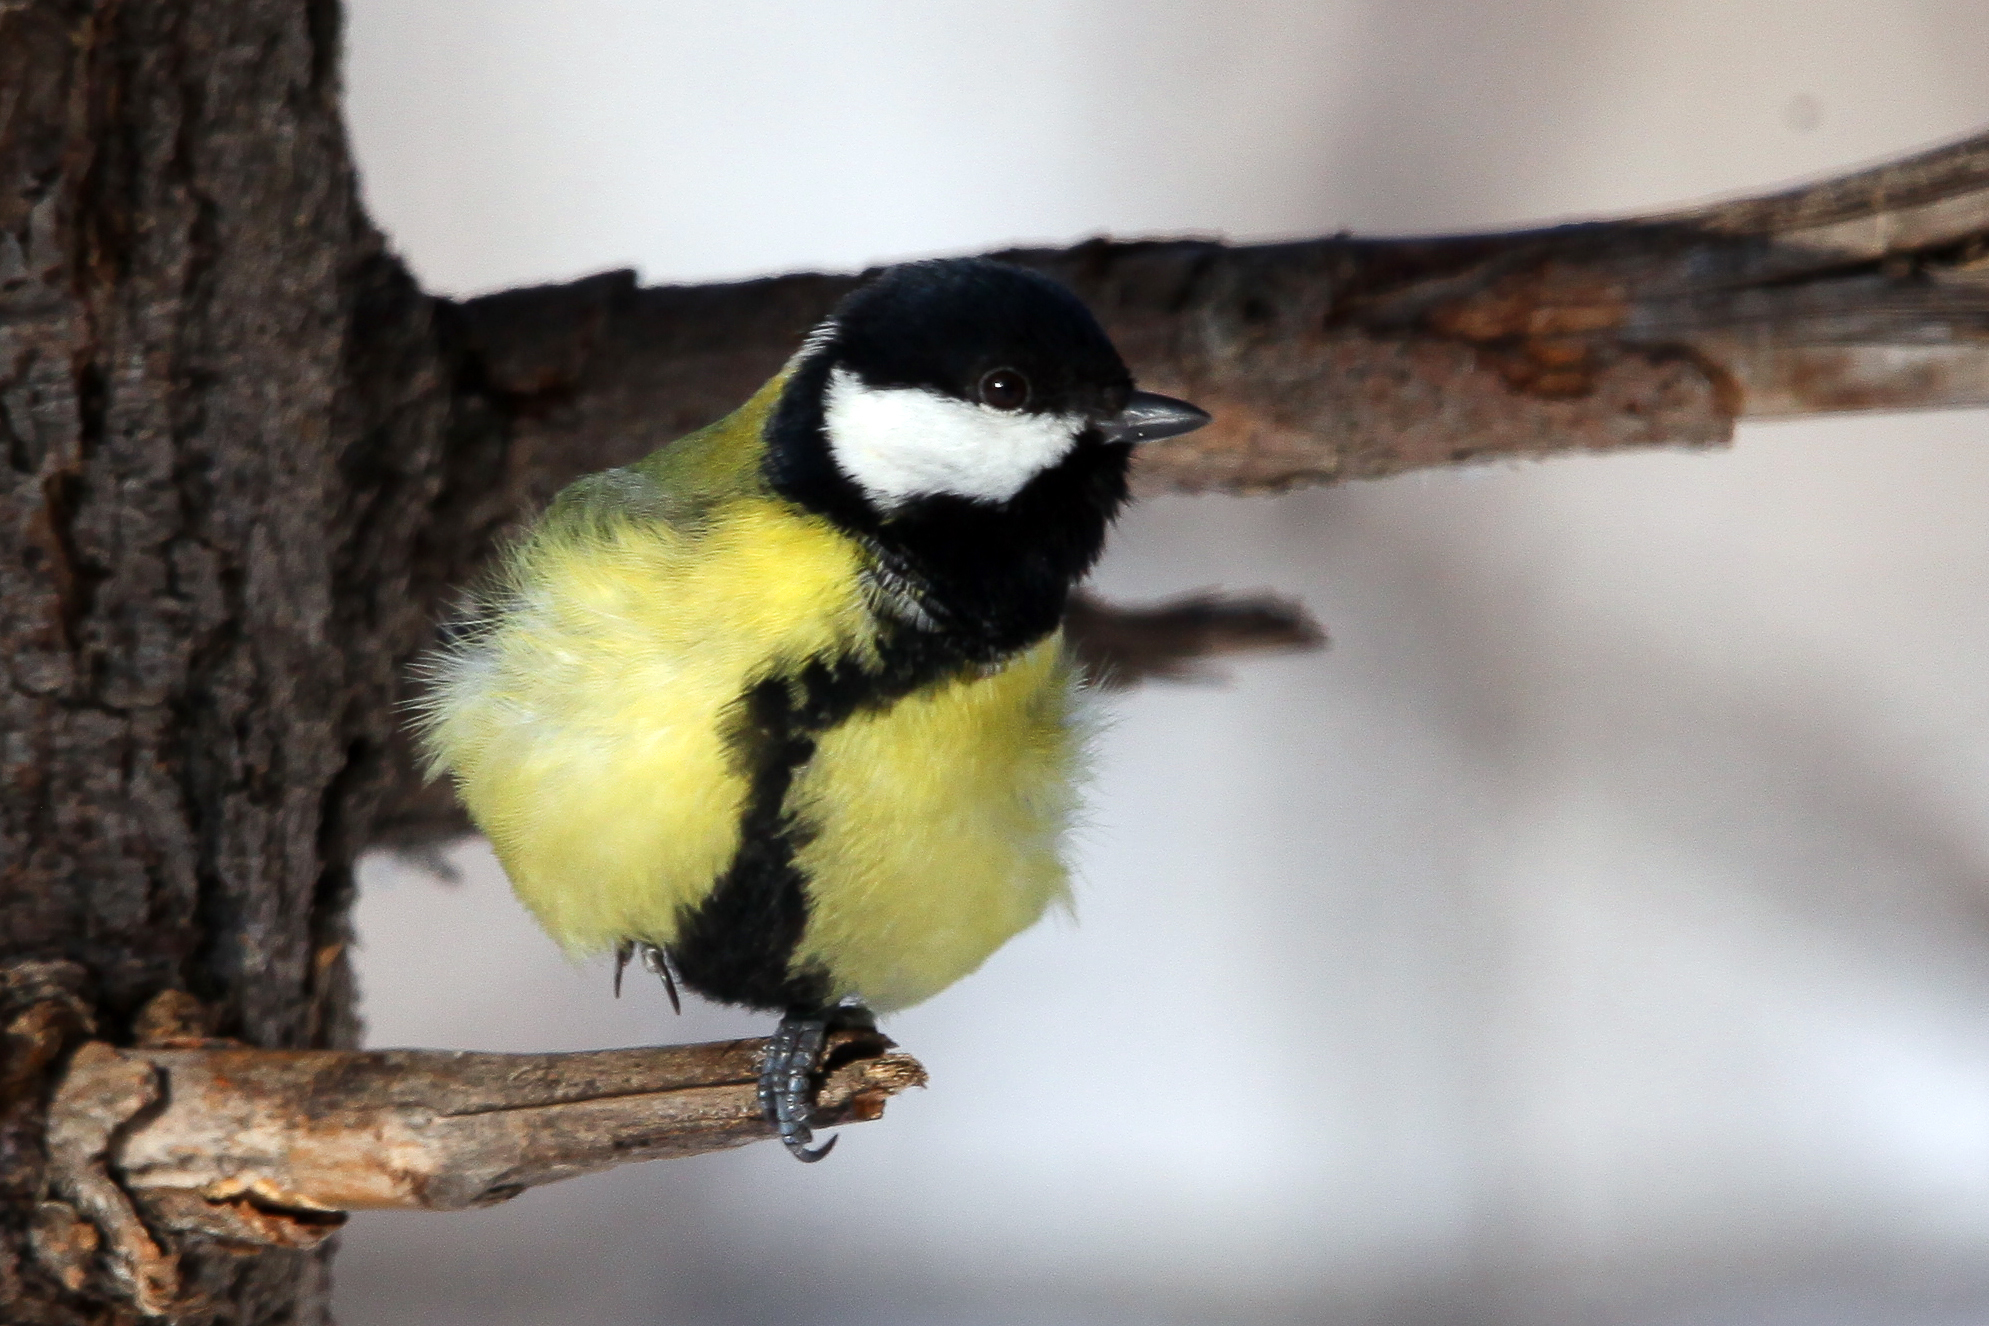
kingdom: Animalia
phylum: Chordata
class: Aves
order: Passeriformes
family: Paridae
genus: Parus
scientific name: Parus major
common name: Great tit
